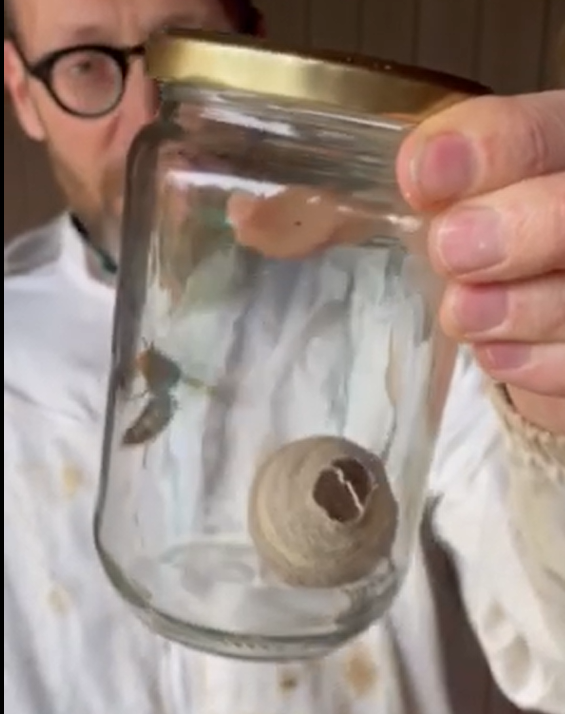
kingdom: Animalia
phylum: Arthropoda
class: Insecta
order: Hymenoptera
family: Vespidae
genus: Vespa
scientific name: Vespa velutina
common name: Asian hornet
